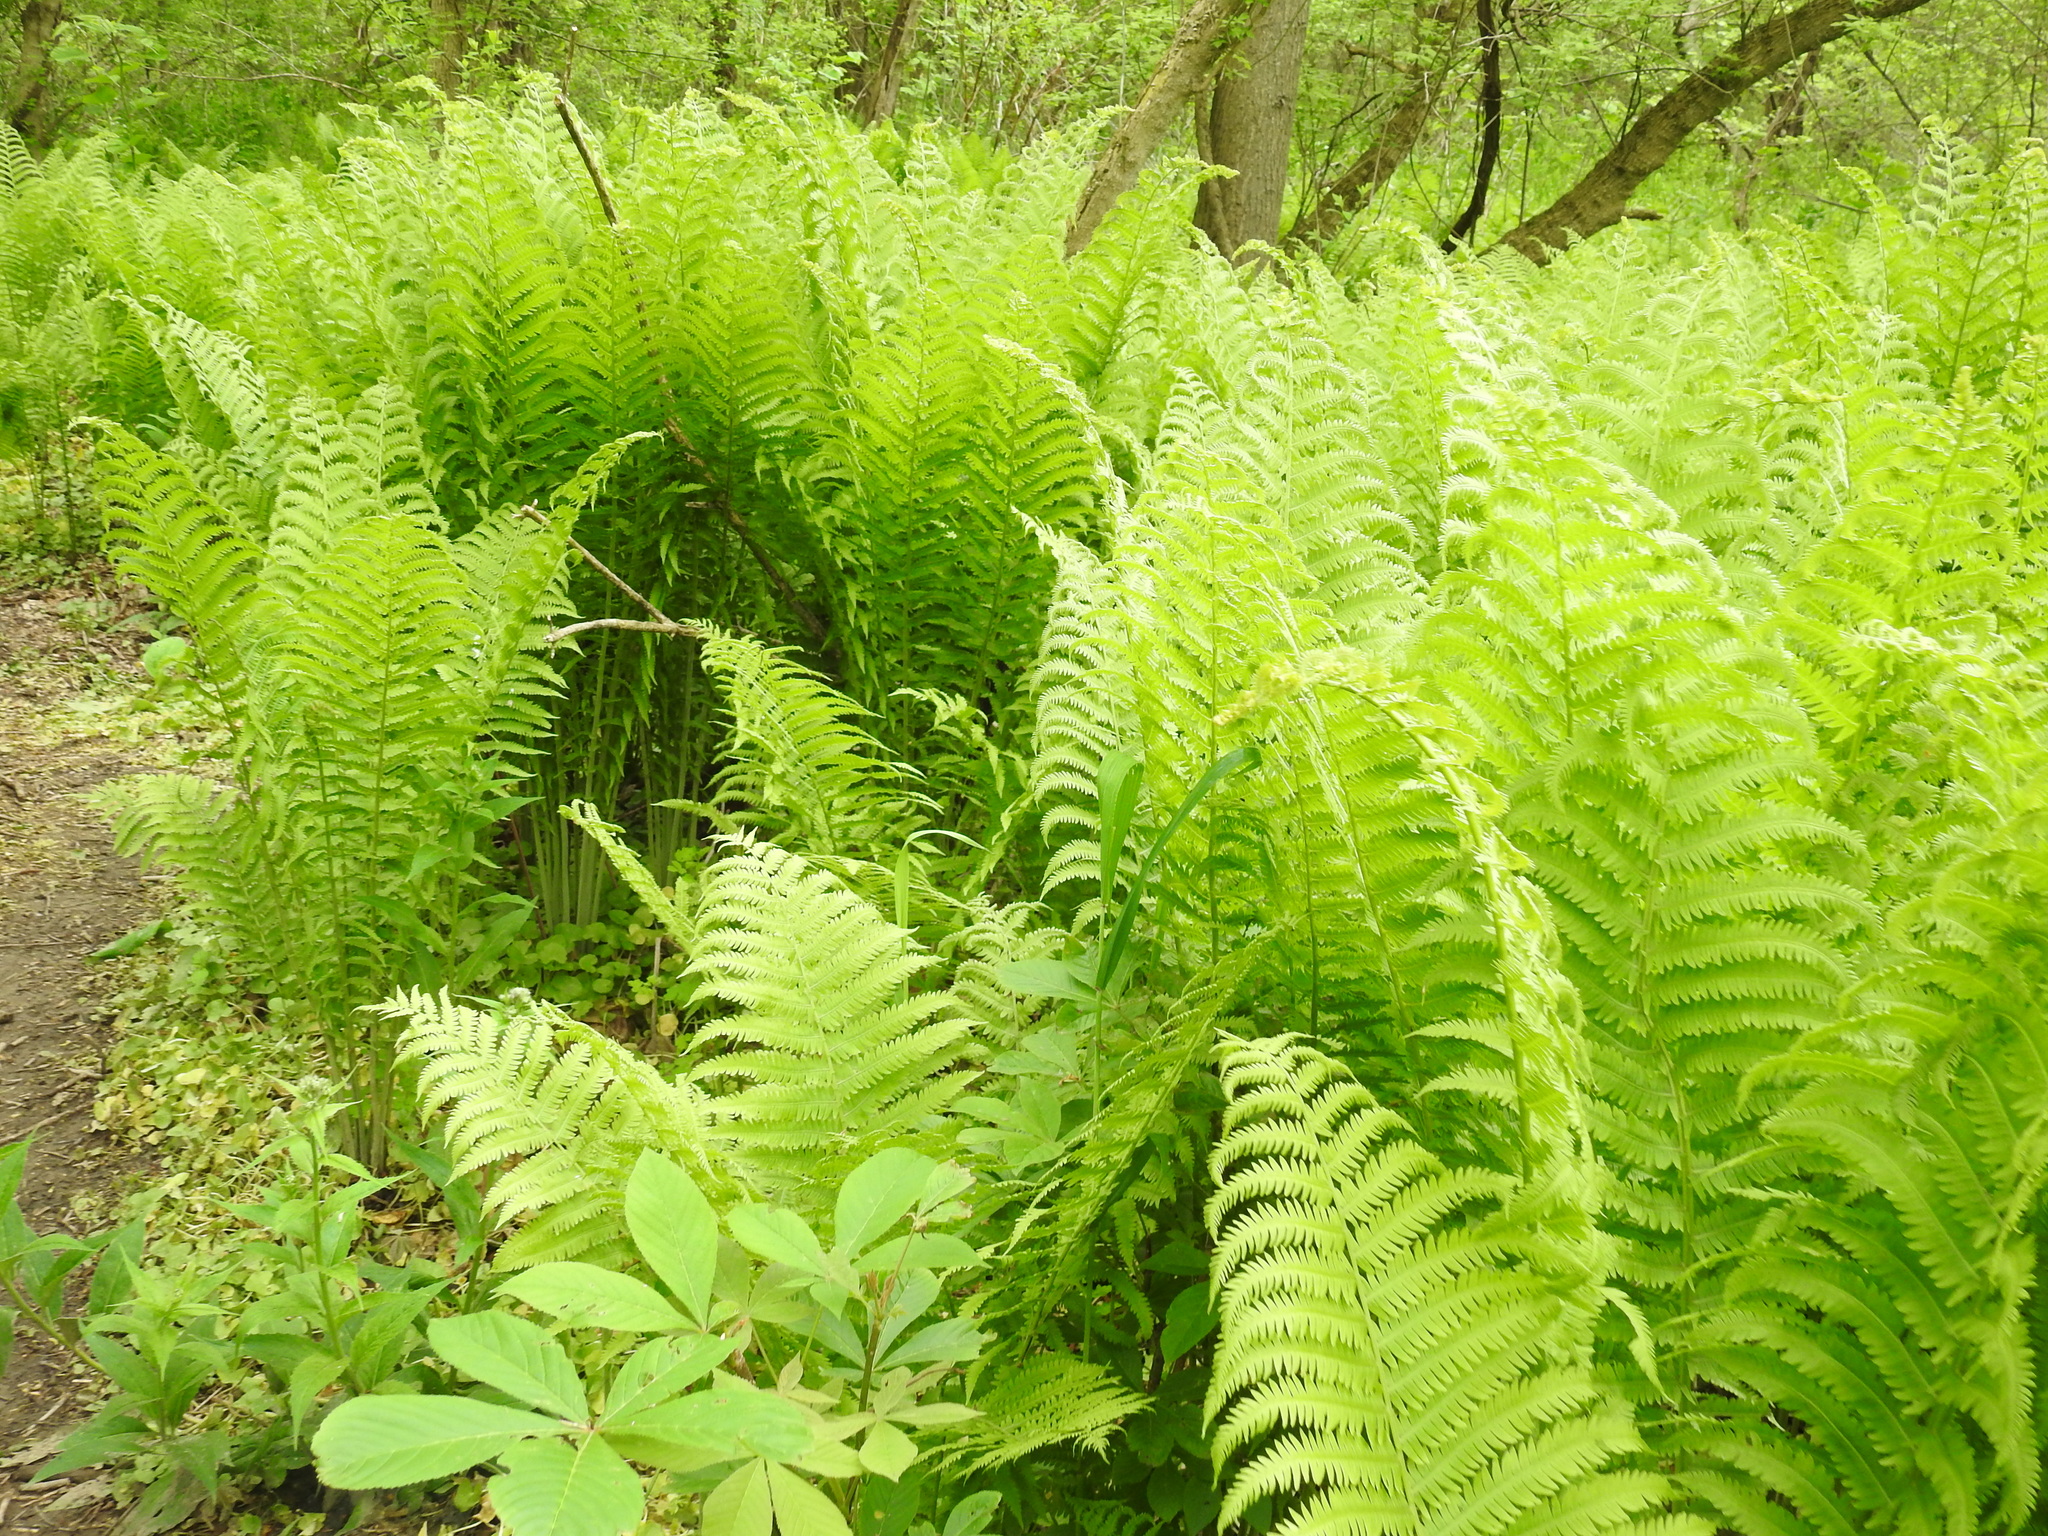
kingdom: Plantae
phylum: Tracheophyta
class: Polypodiopsida
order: Polypodiales
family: Onocleaceae
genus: Matteuccia
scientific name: Matteuccia struthiopteris
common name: Ostrich fern
